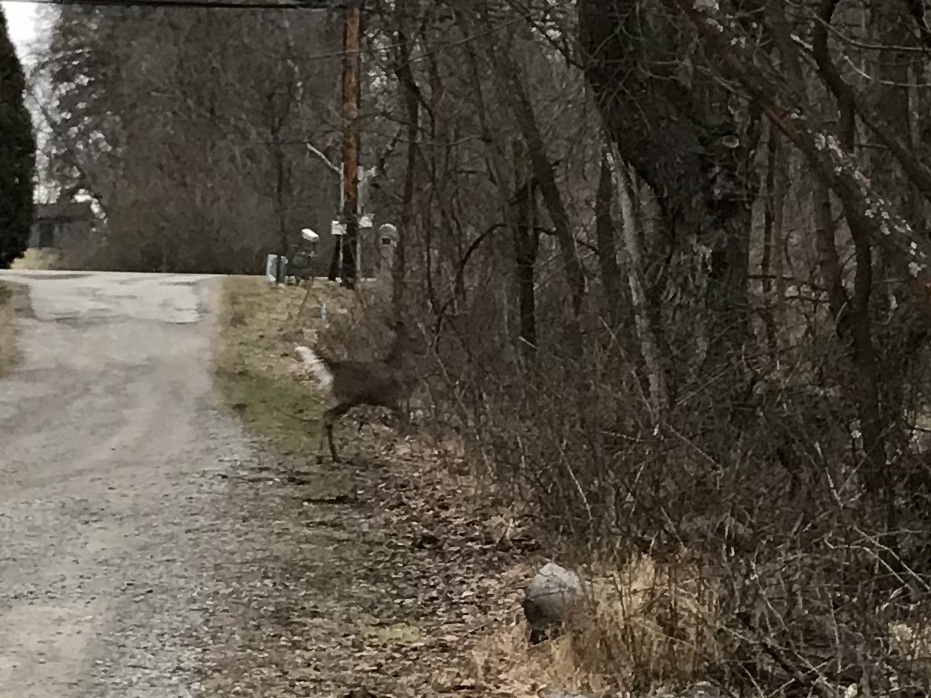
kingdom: Animalia
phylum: Chordata
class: Mammalia
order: Artiodactyla
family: Cervidae
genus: Odocoileus
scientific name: Odocoileus virginianus
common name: White-tailed deer
